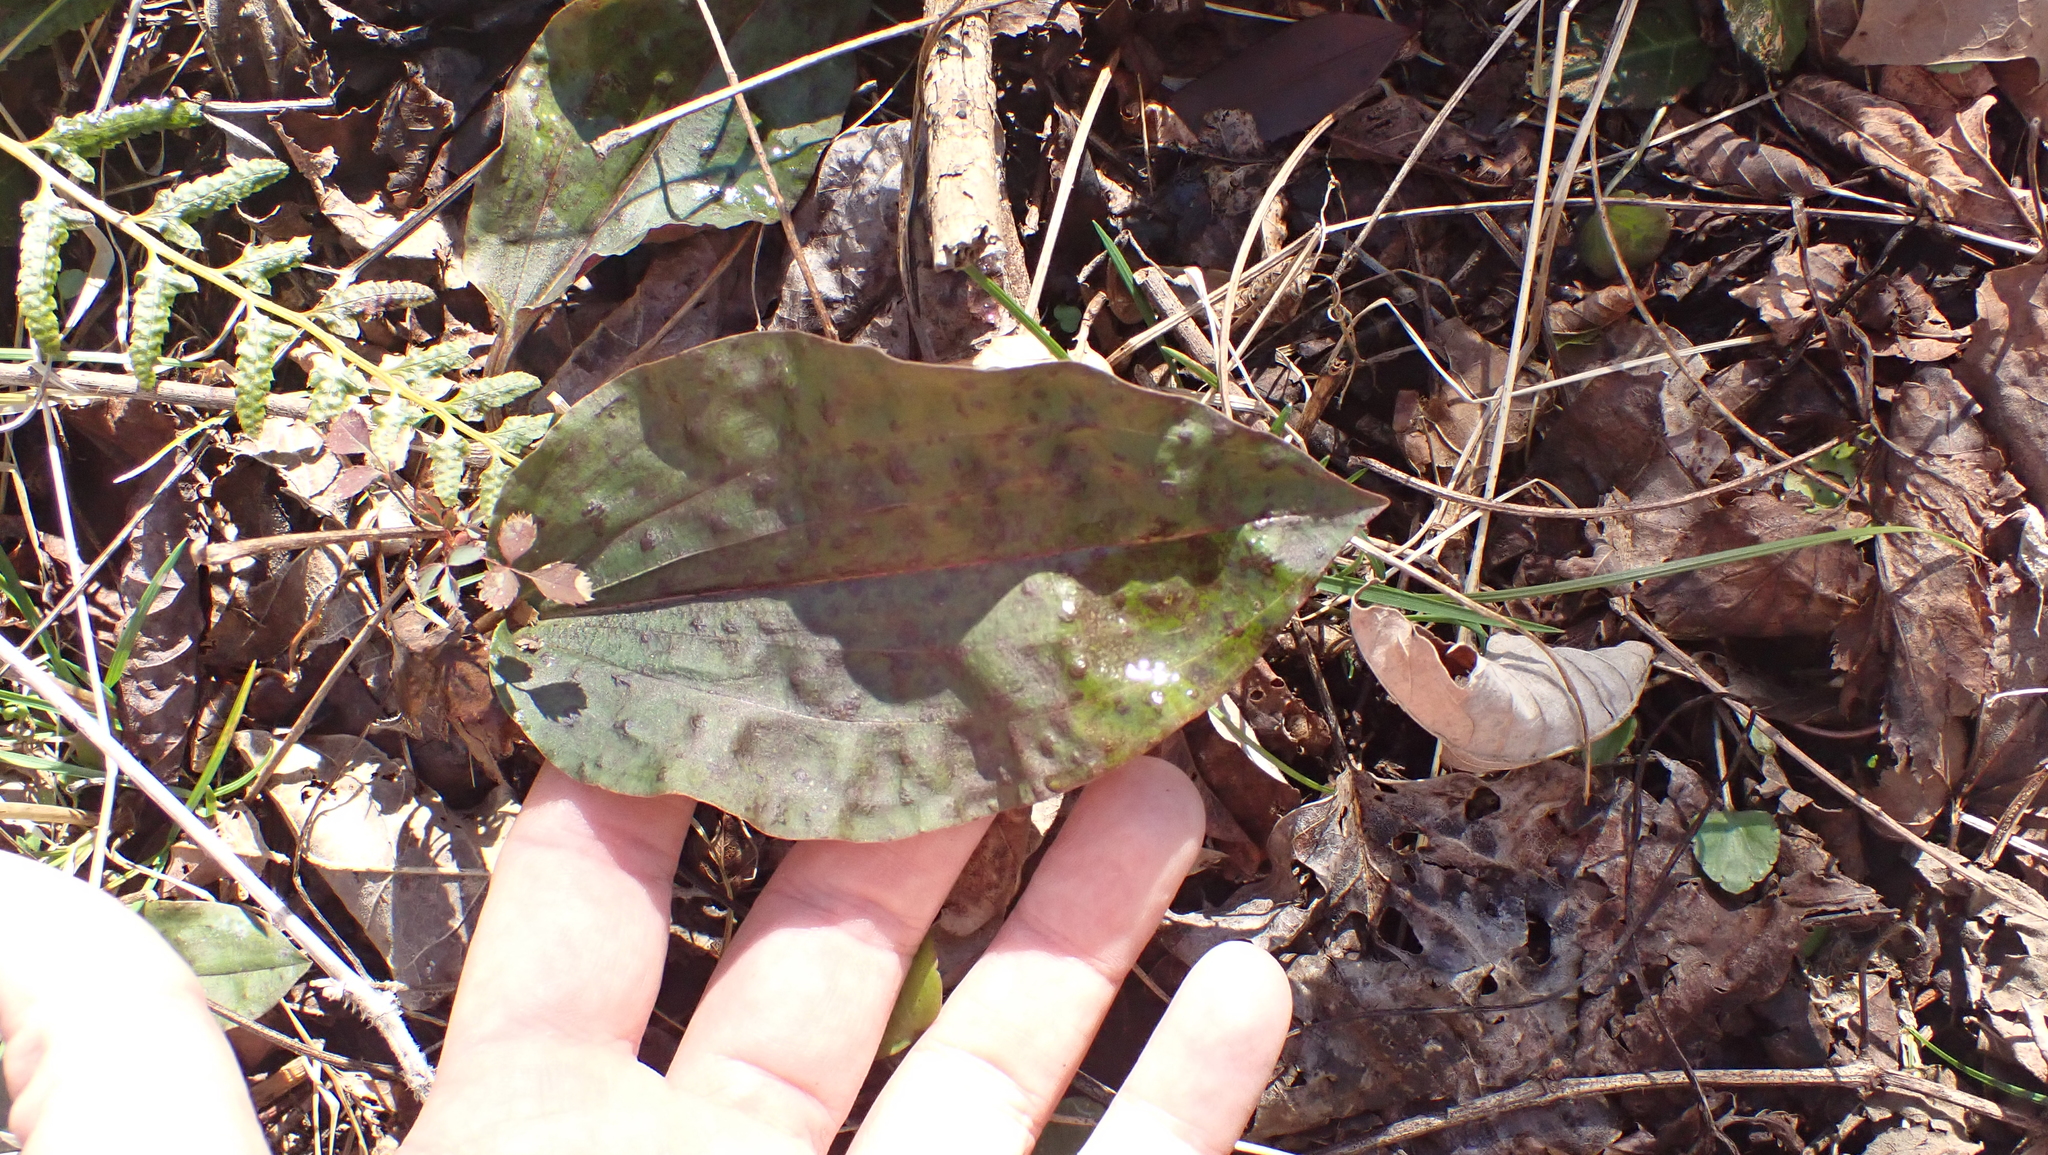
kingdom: Plantae
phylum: Tracheophyta
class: Liliopsida
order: Asparagales
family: Orchidaceae
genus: Tipularia
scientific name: Tipularia discolor
